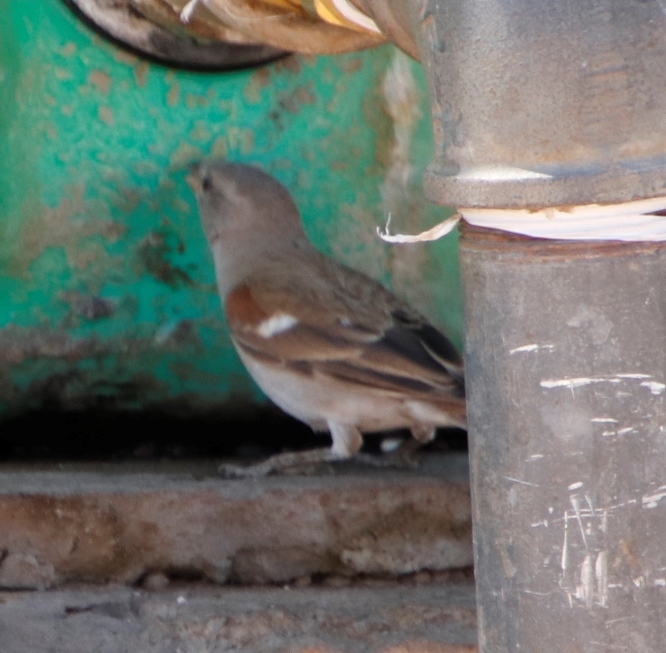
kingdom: Animalia
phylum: Chordata
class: Aves
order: Passeriformes
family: Passeridae
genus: Passer
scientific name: Passer diffusus
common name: Southern grey-headed sparrow
